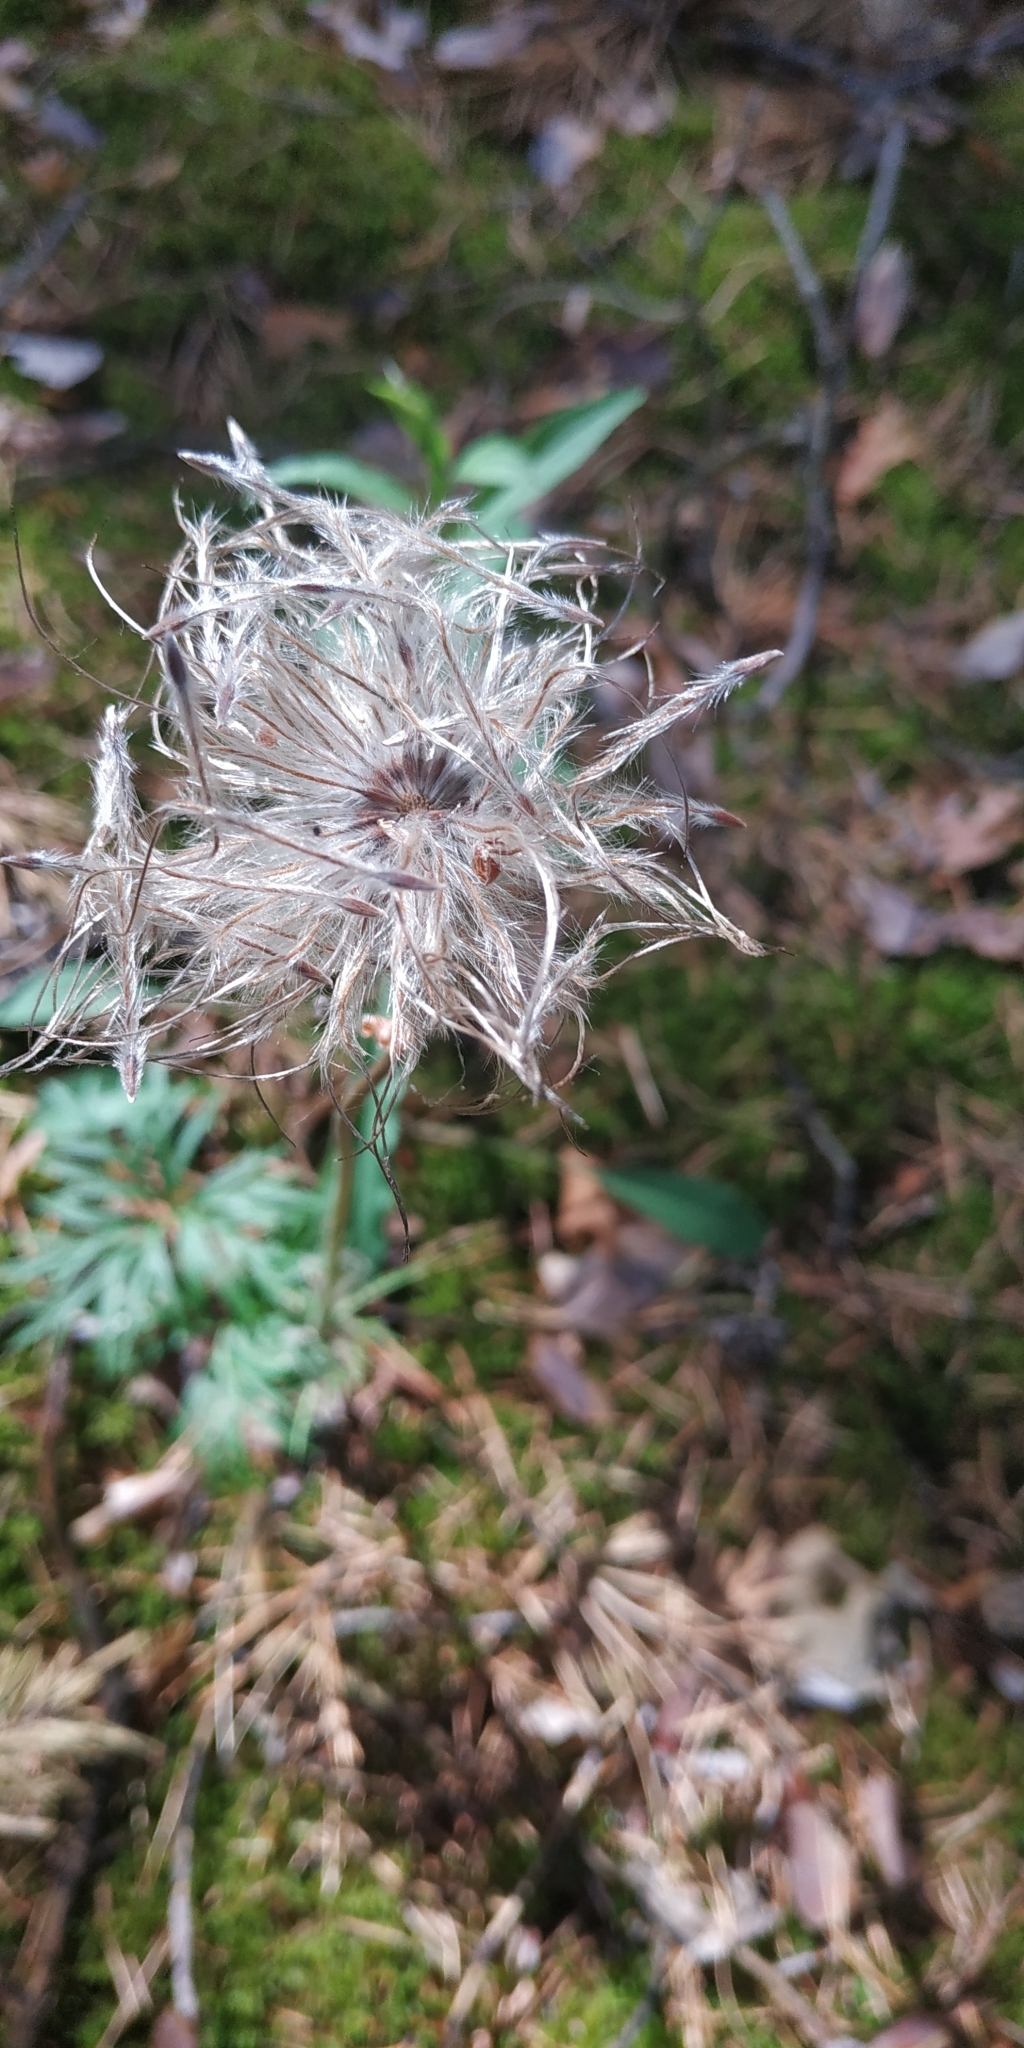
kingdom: Plantae
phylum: Tracheophyta
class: Magnoliopsida
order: Ranunculales
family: Ranunculaceae
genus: Pulsatilla
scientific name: Pulsatilla patens
